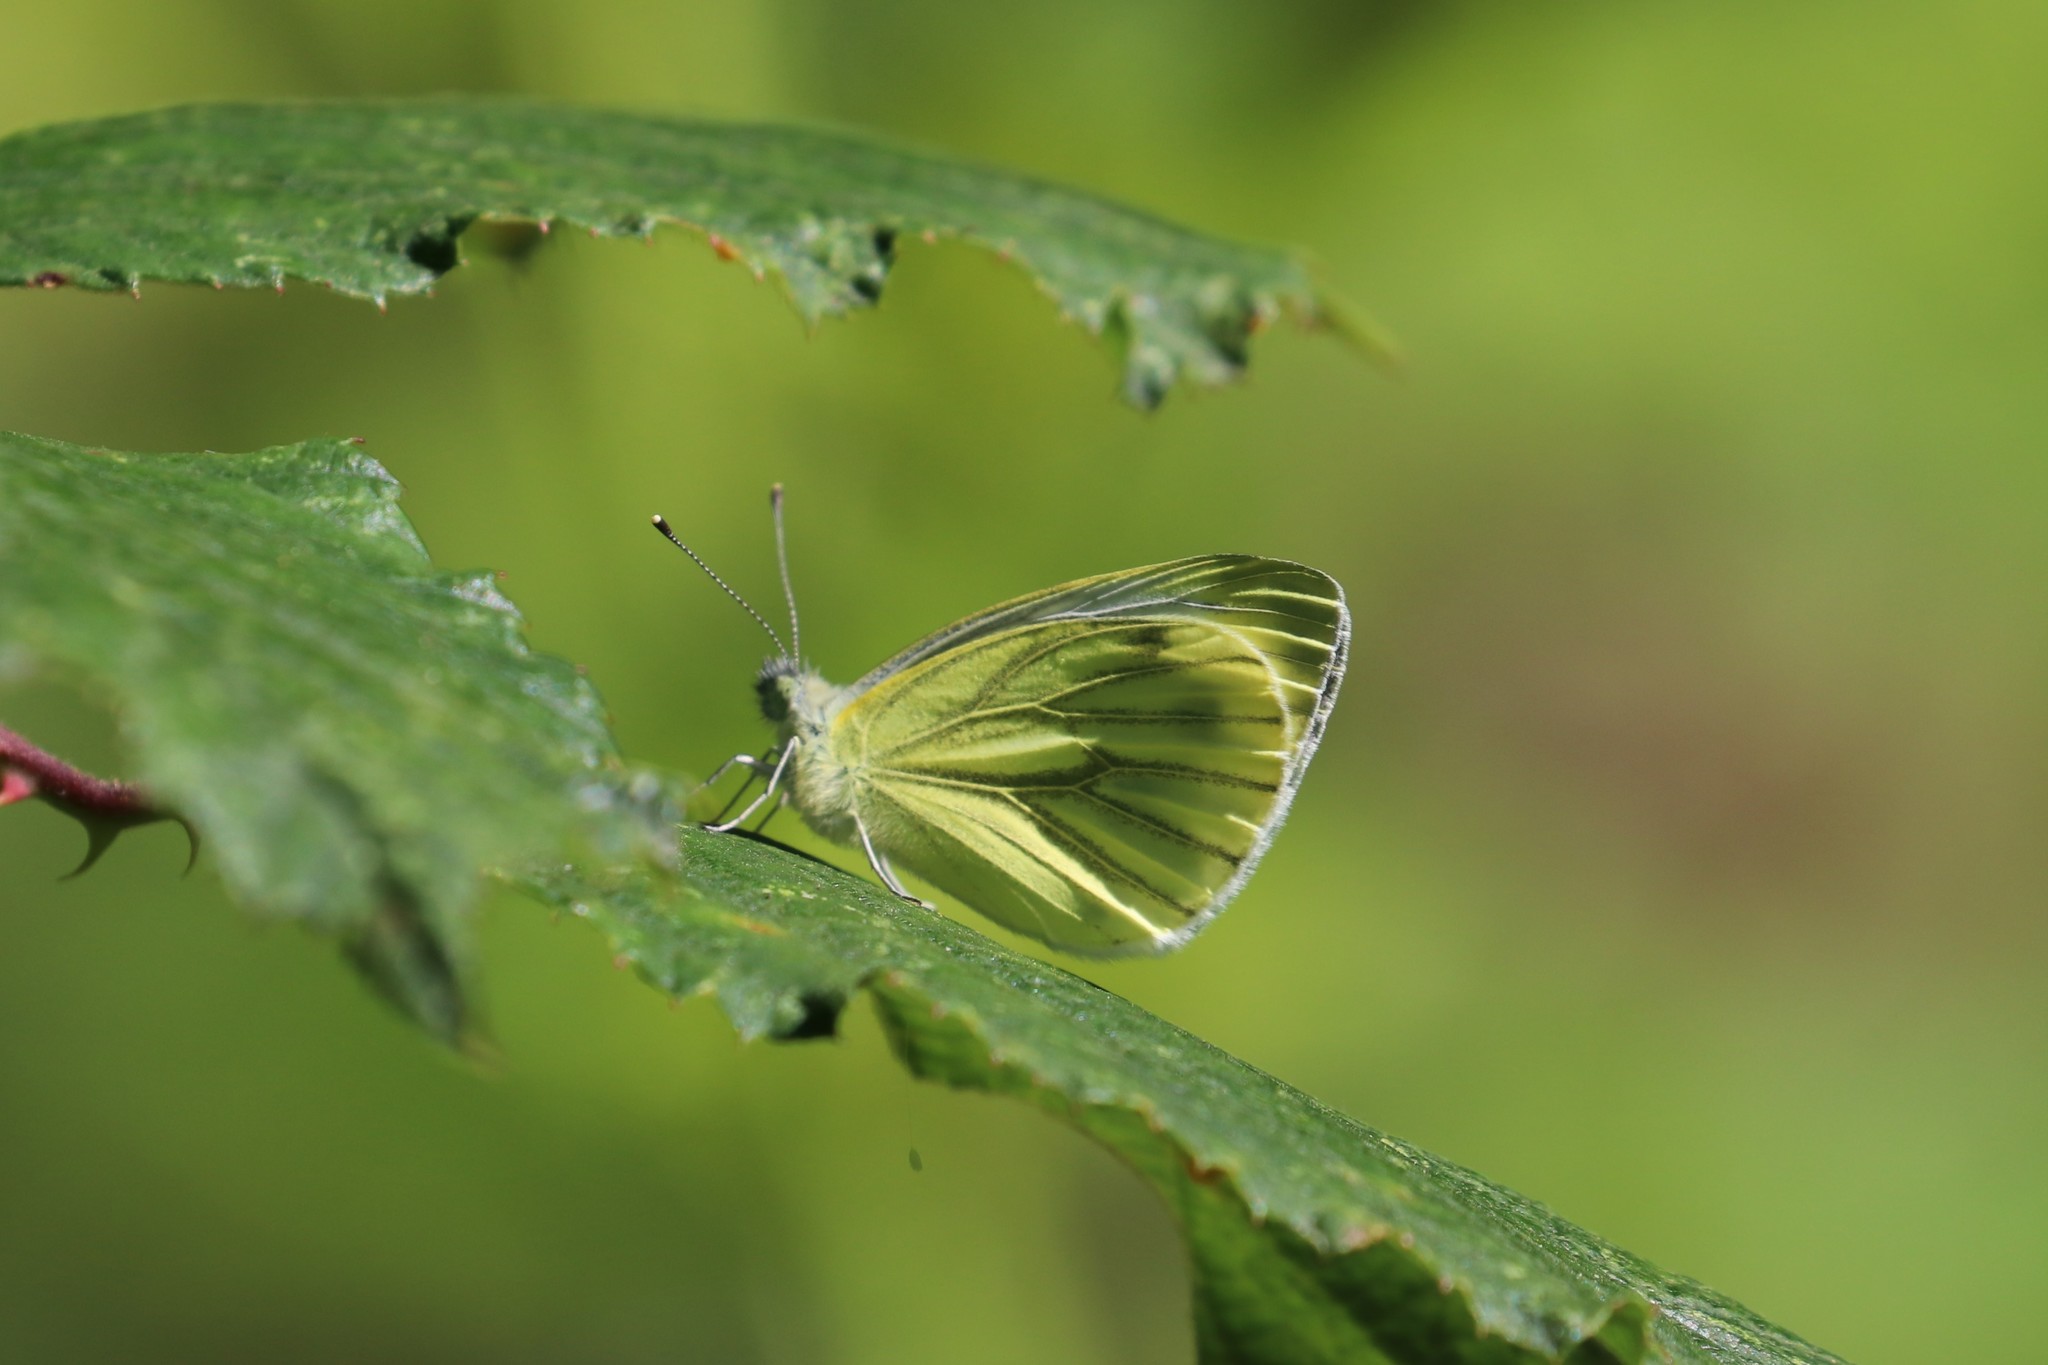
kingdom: Animalia
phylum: Arthropoda
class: Insecta
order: Lepidoptera
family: Pieridae
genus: Pieris
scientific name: Pieris napi
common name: Green-veined white
